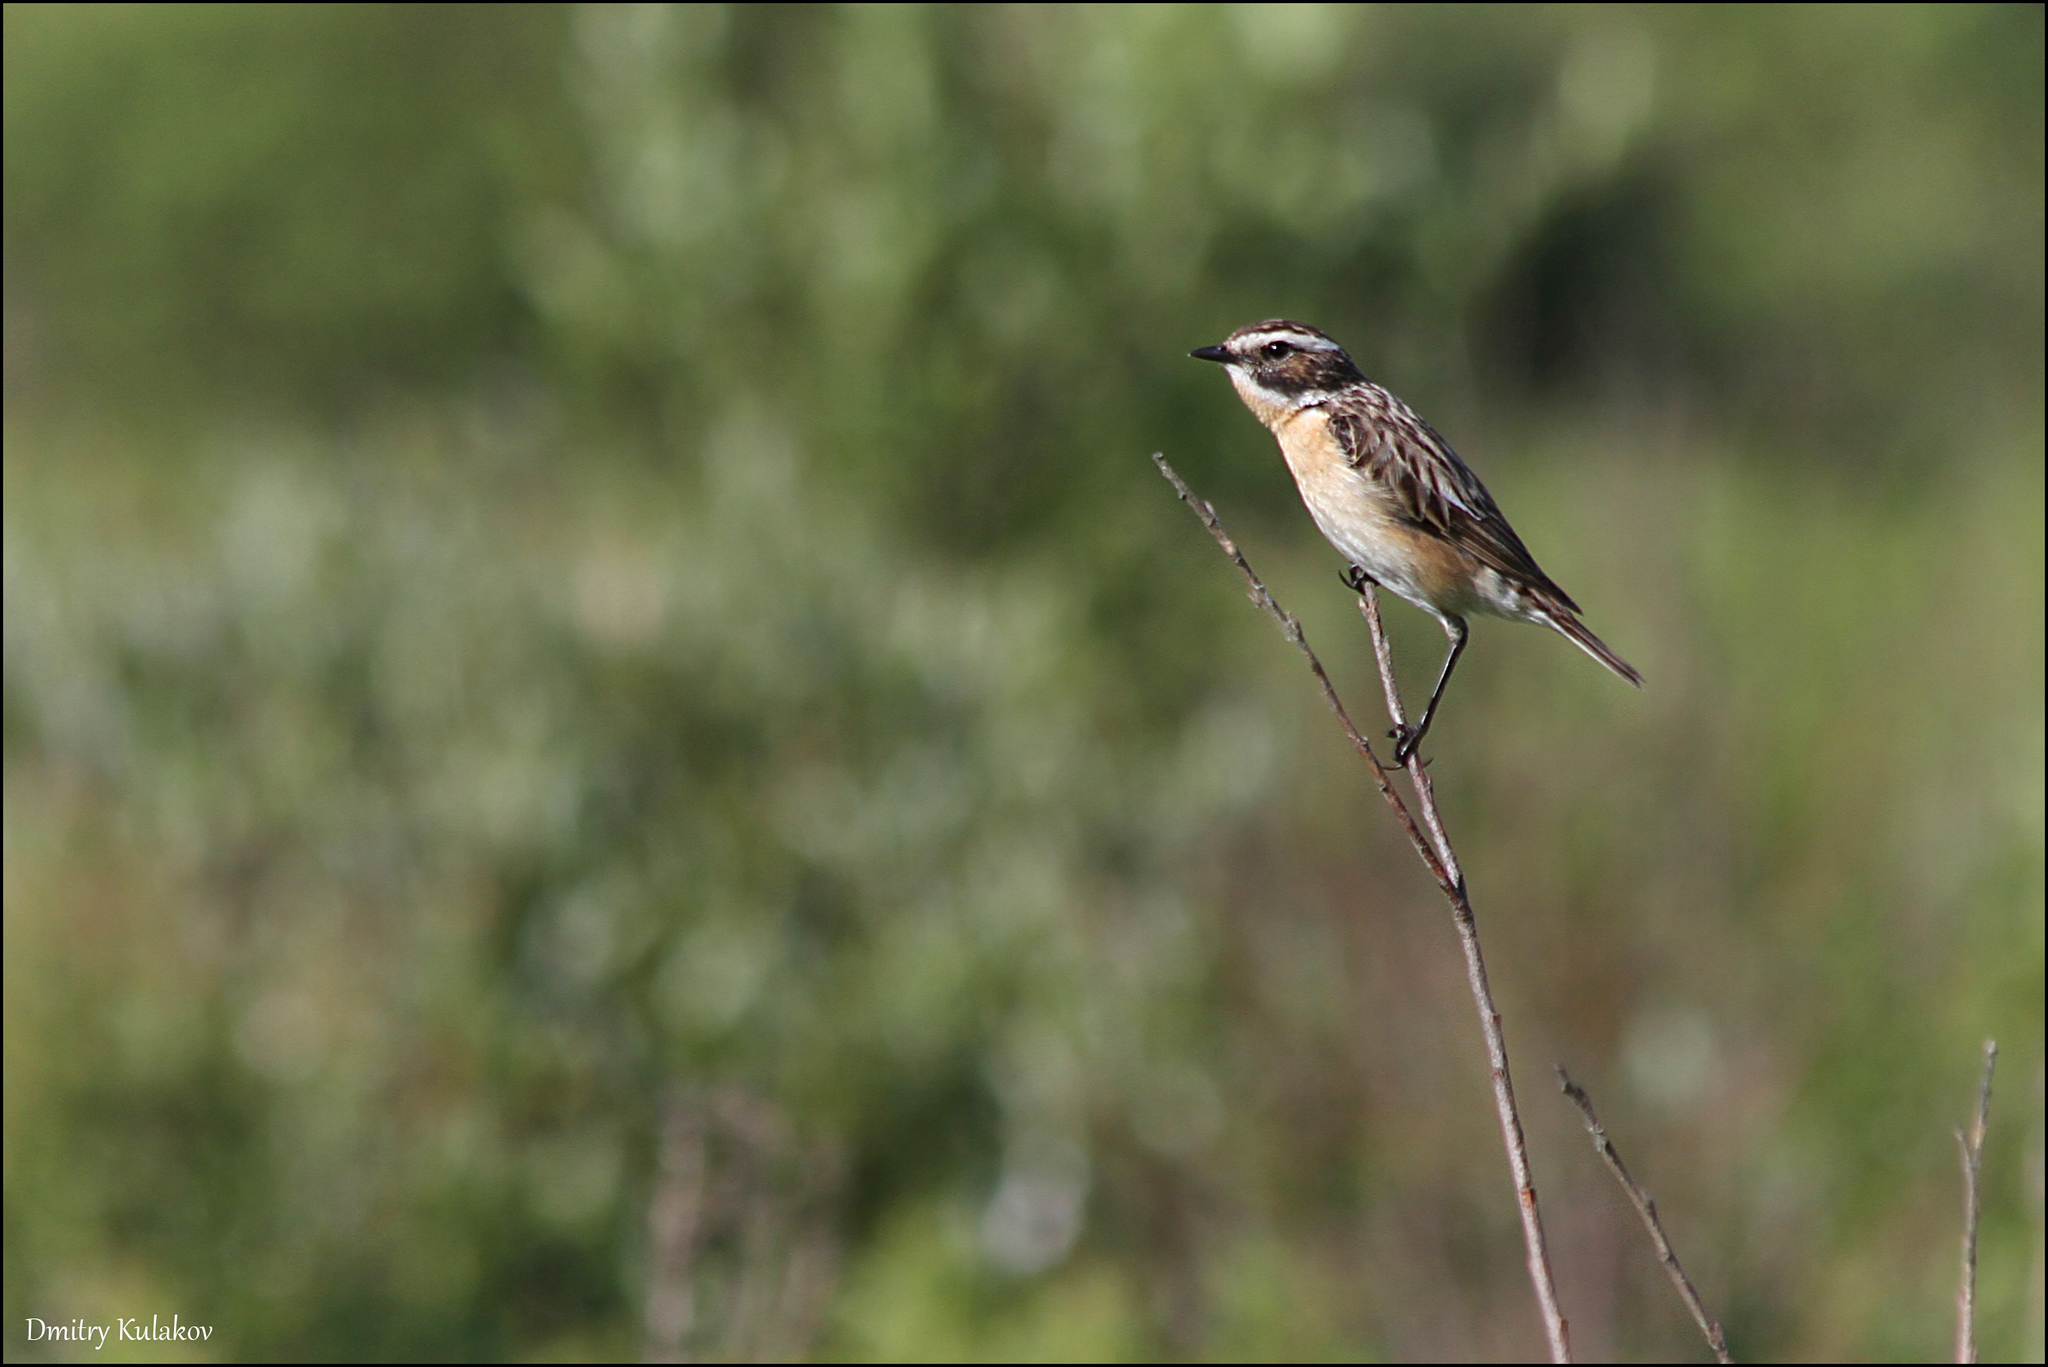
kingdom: Animalia
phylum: Chordata
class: Aves
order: Passeriformes
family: Muscicapidae
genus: Saxicola
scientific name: Saxicola rubetra
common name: Whinchat
